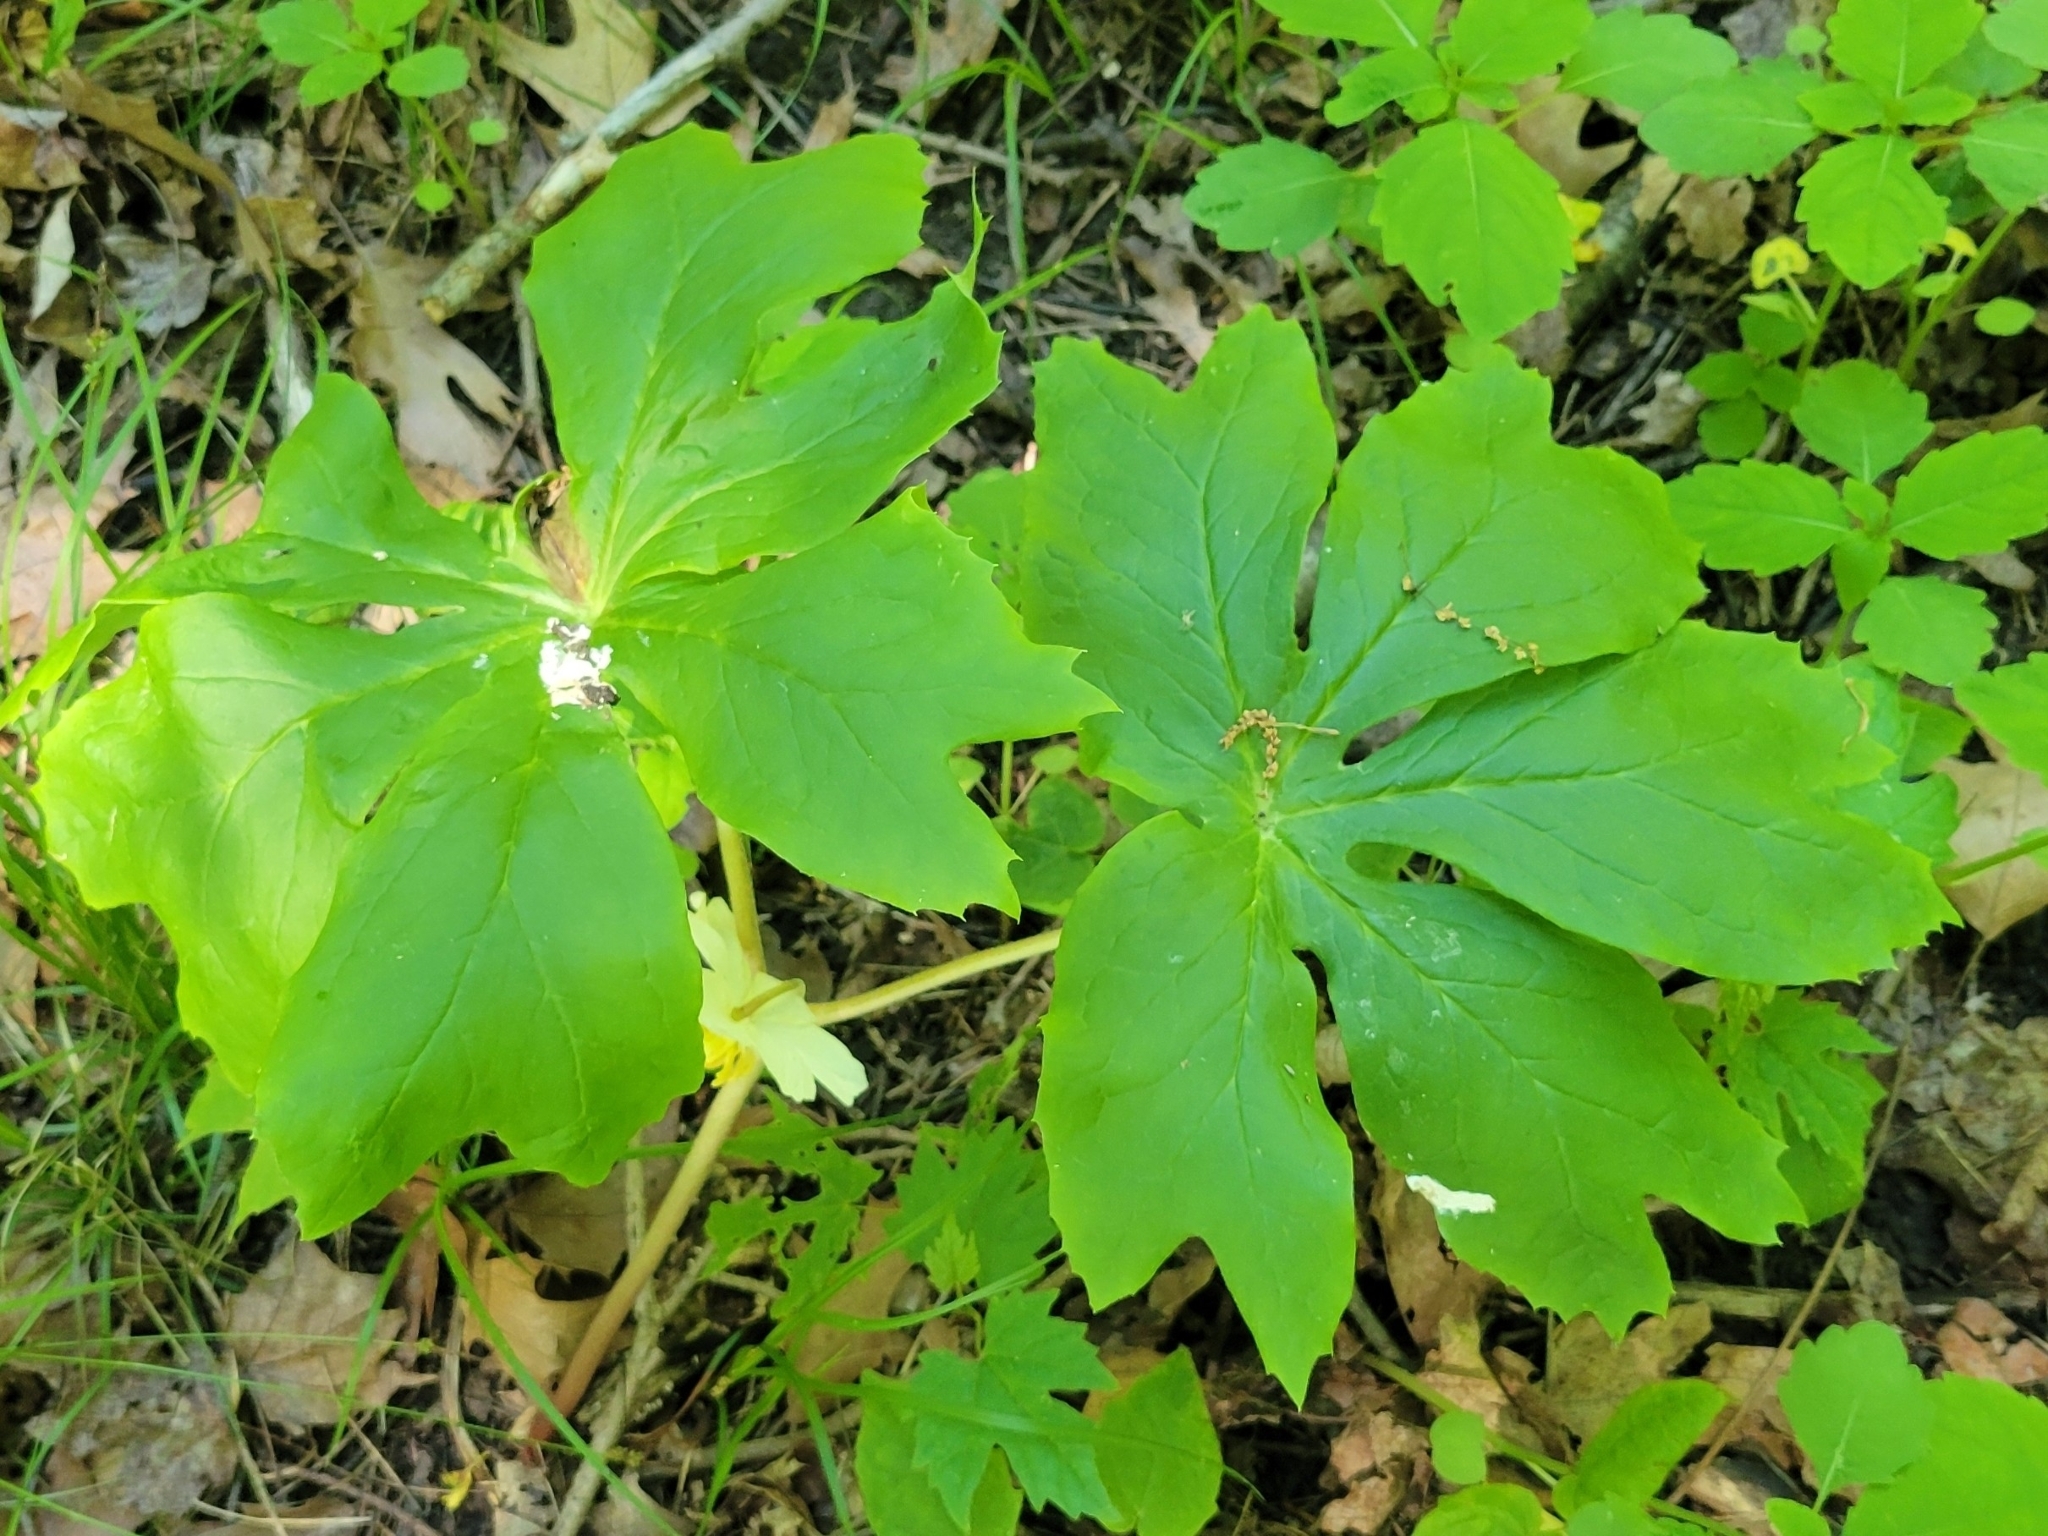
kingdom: Plantae
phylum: Tracheophyta
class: Magnoliopsida
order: Ranunculales
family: Berberidaceae
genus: Podophyllum
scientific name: Podophyllum peltatum
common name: Wild mandrake
